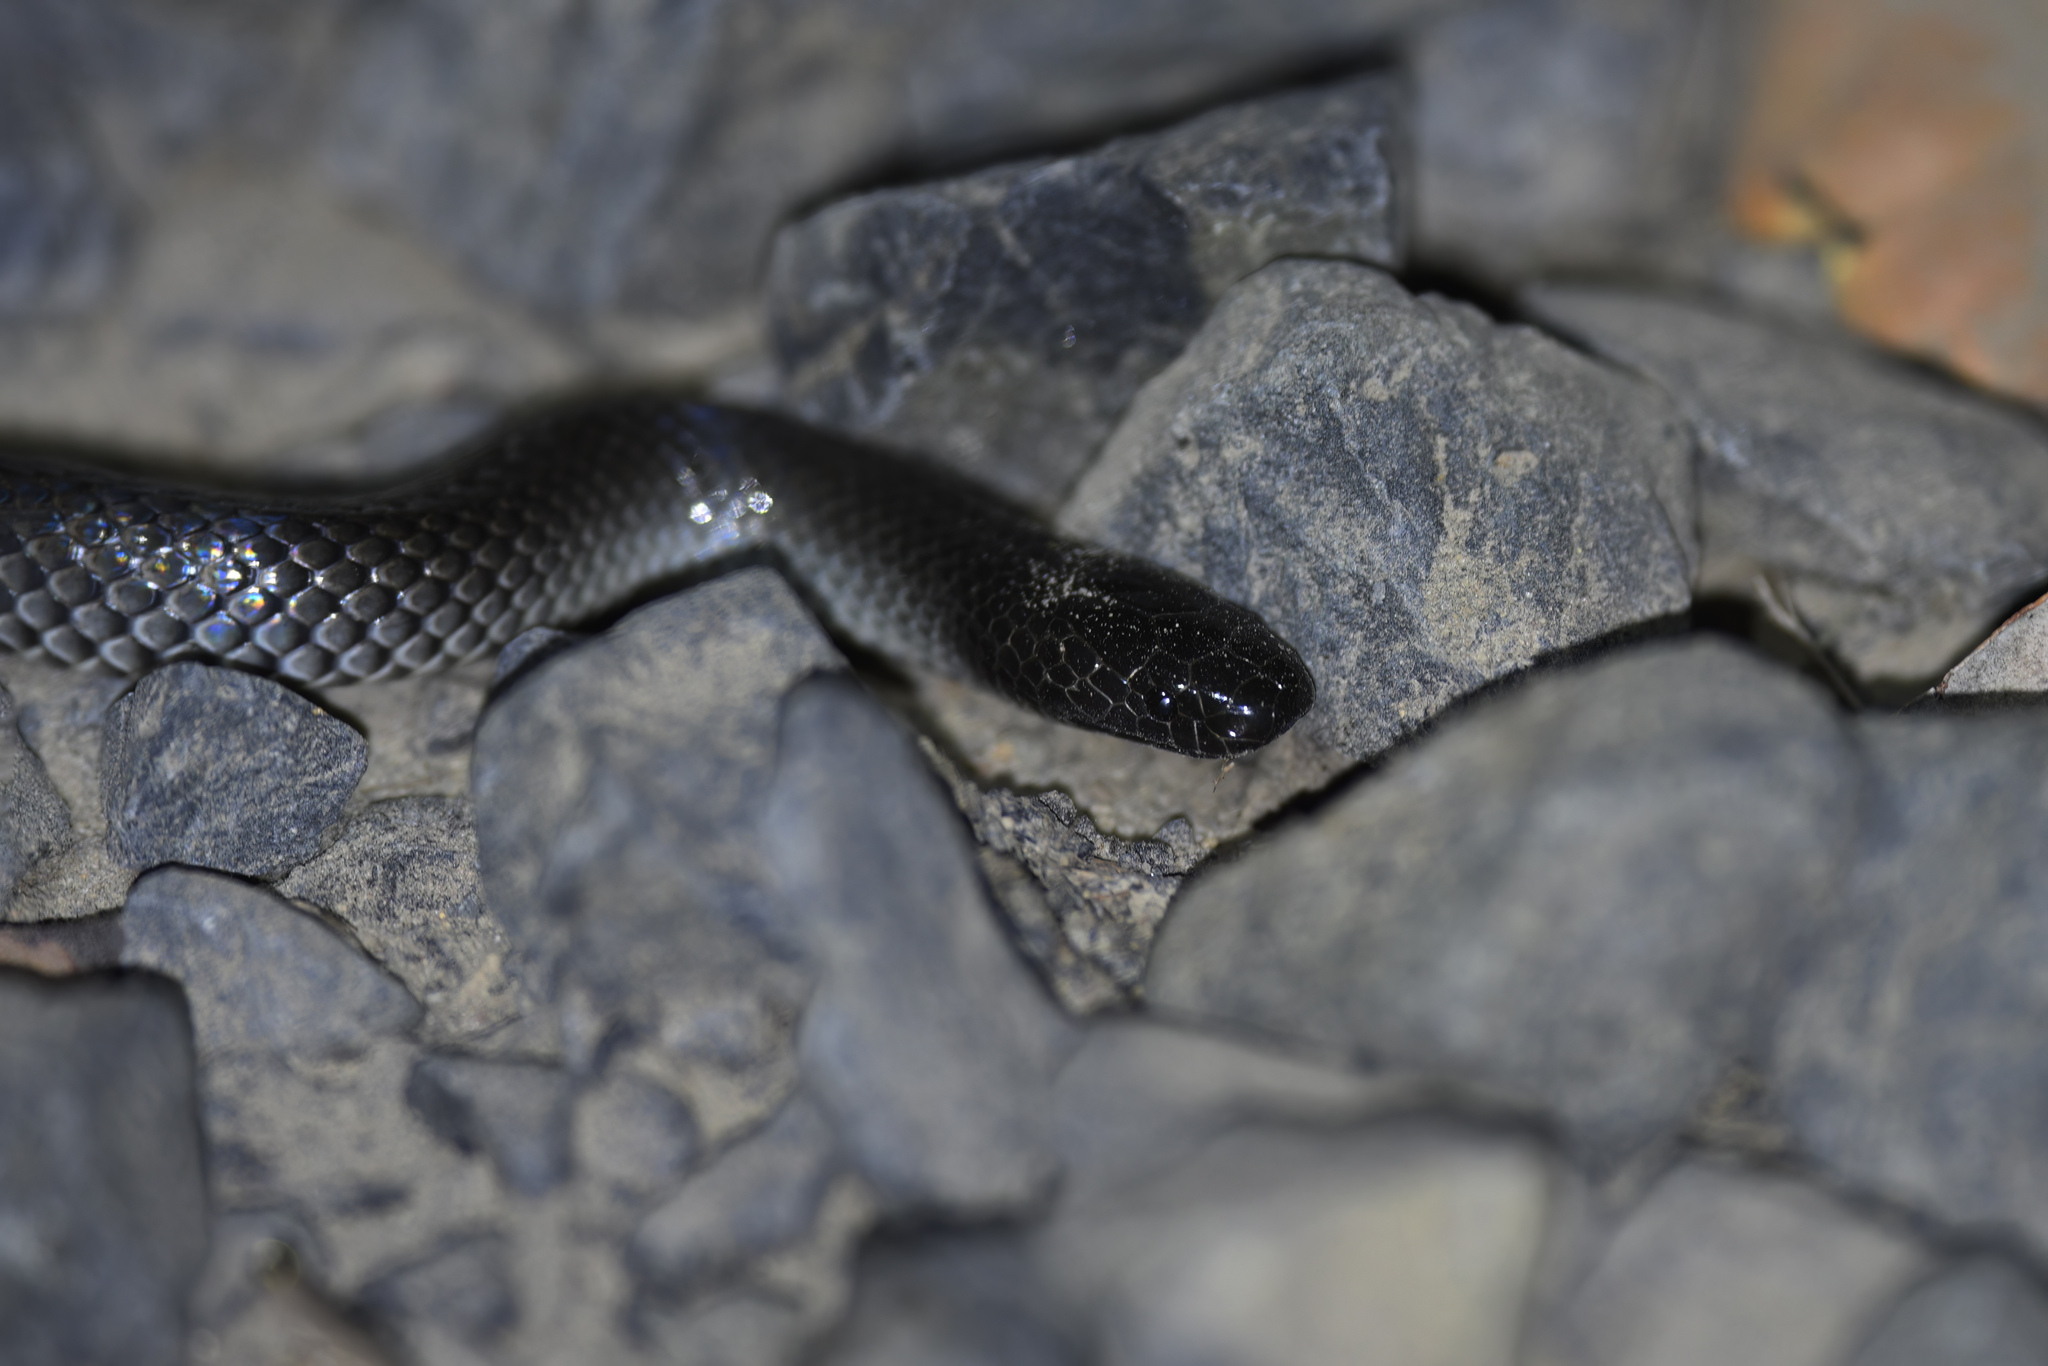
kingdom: Animalia
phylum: Chordata
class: Squamata
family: Elapidae
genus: Cryptophis
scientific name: Cryptophis nigrescens
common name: Eastern small-eyed snake
